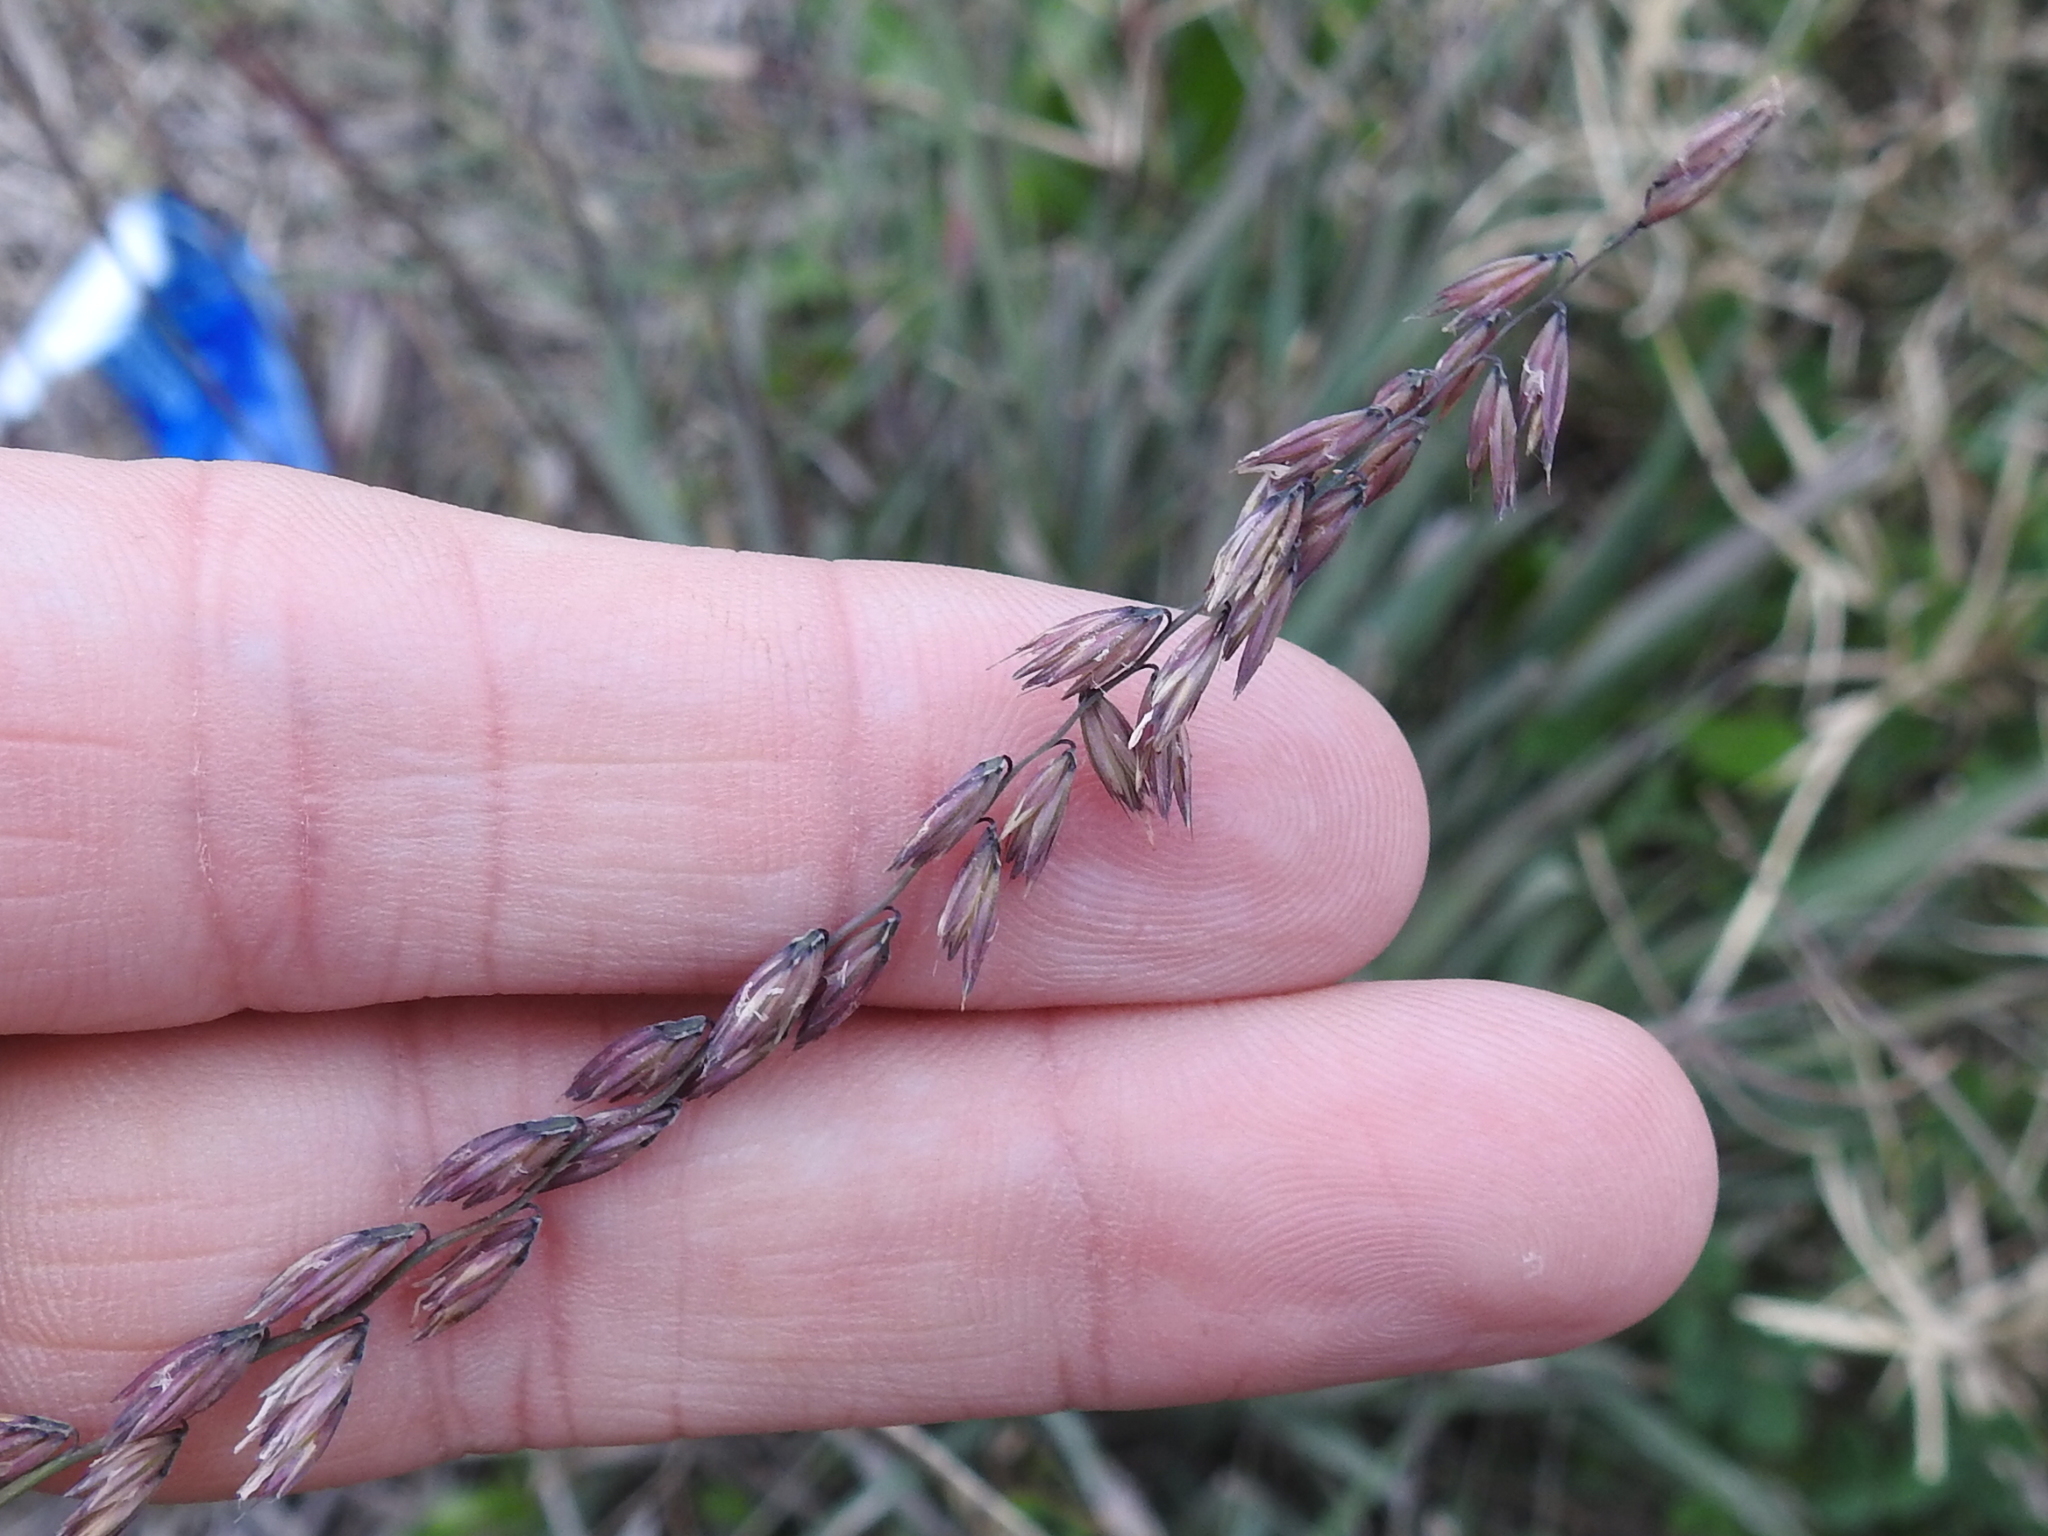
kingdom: Plantae
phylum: Tracheophyta
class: Liliopsida
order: Poales
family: Poaceae
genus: Bouteloua
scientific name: Bouteloua curtipendula
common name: Side-oats grama
